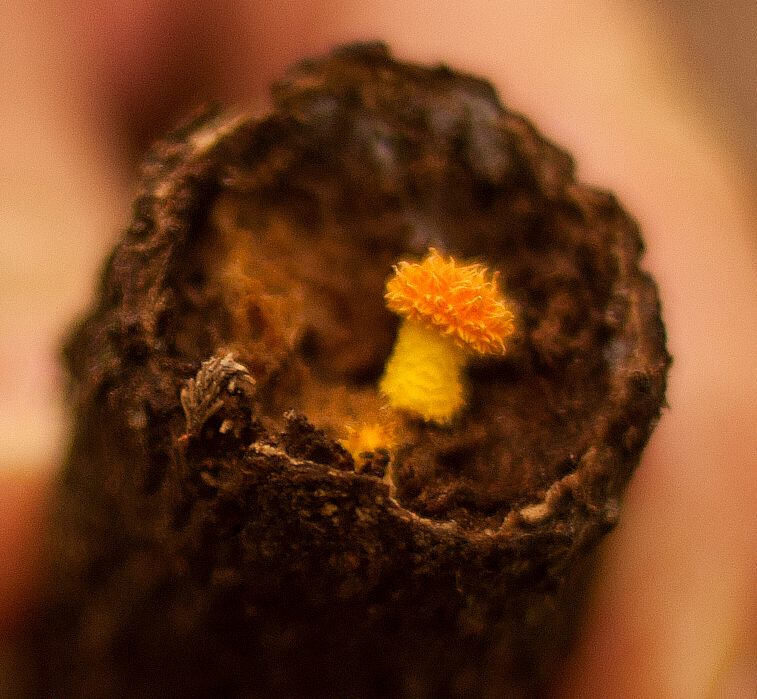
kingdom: Fungi
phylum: Basidiomycota
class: Agaricomycetes
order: Agaricales
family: Physalacriaceae
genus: Cyptotrama
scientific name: Cyptotrama asprata
